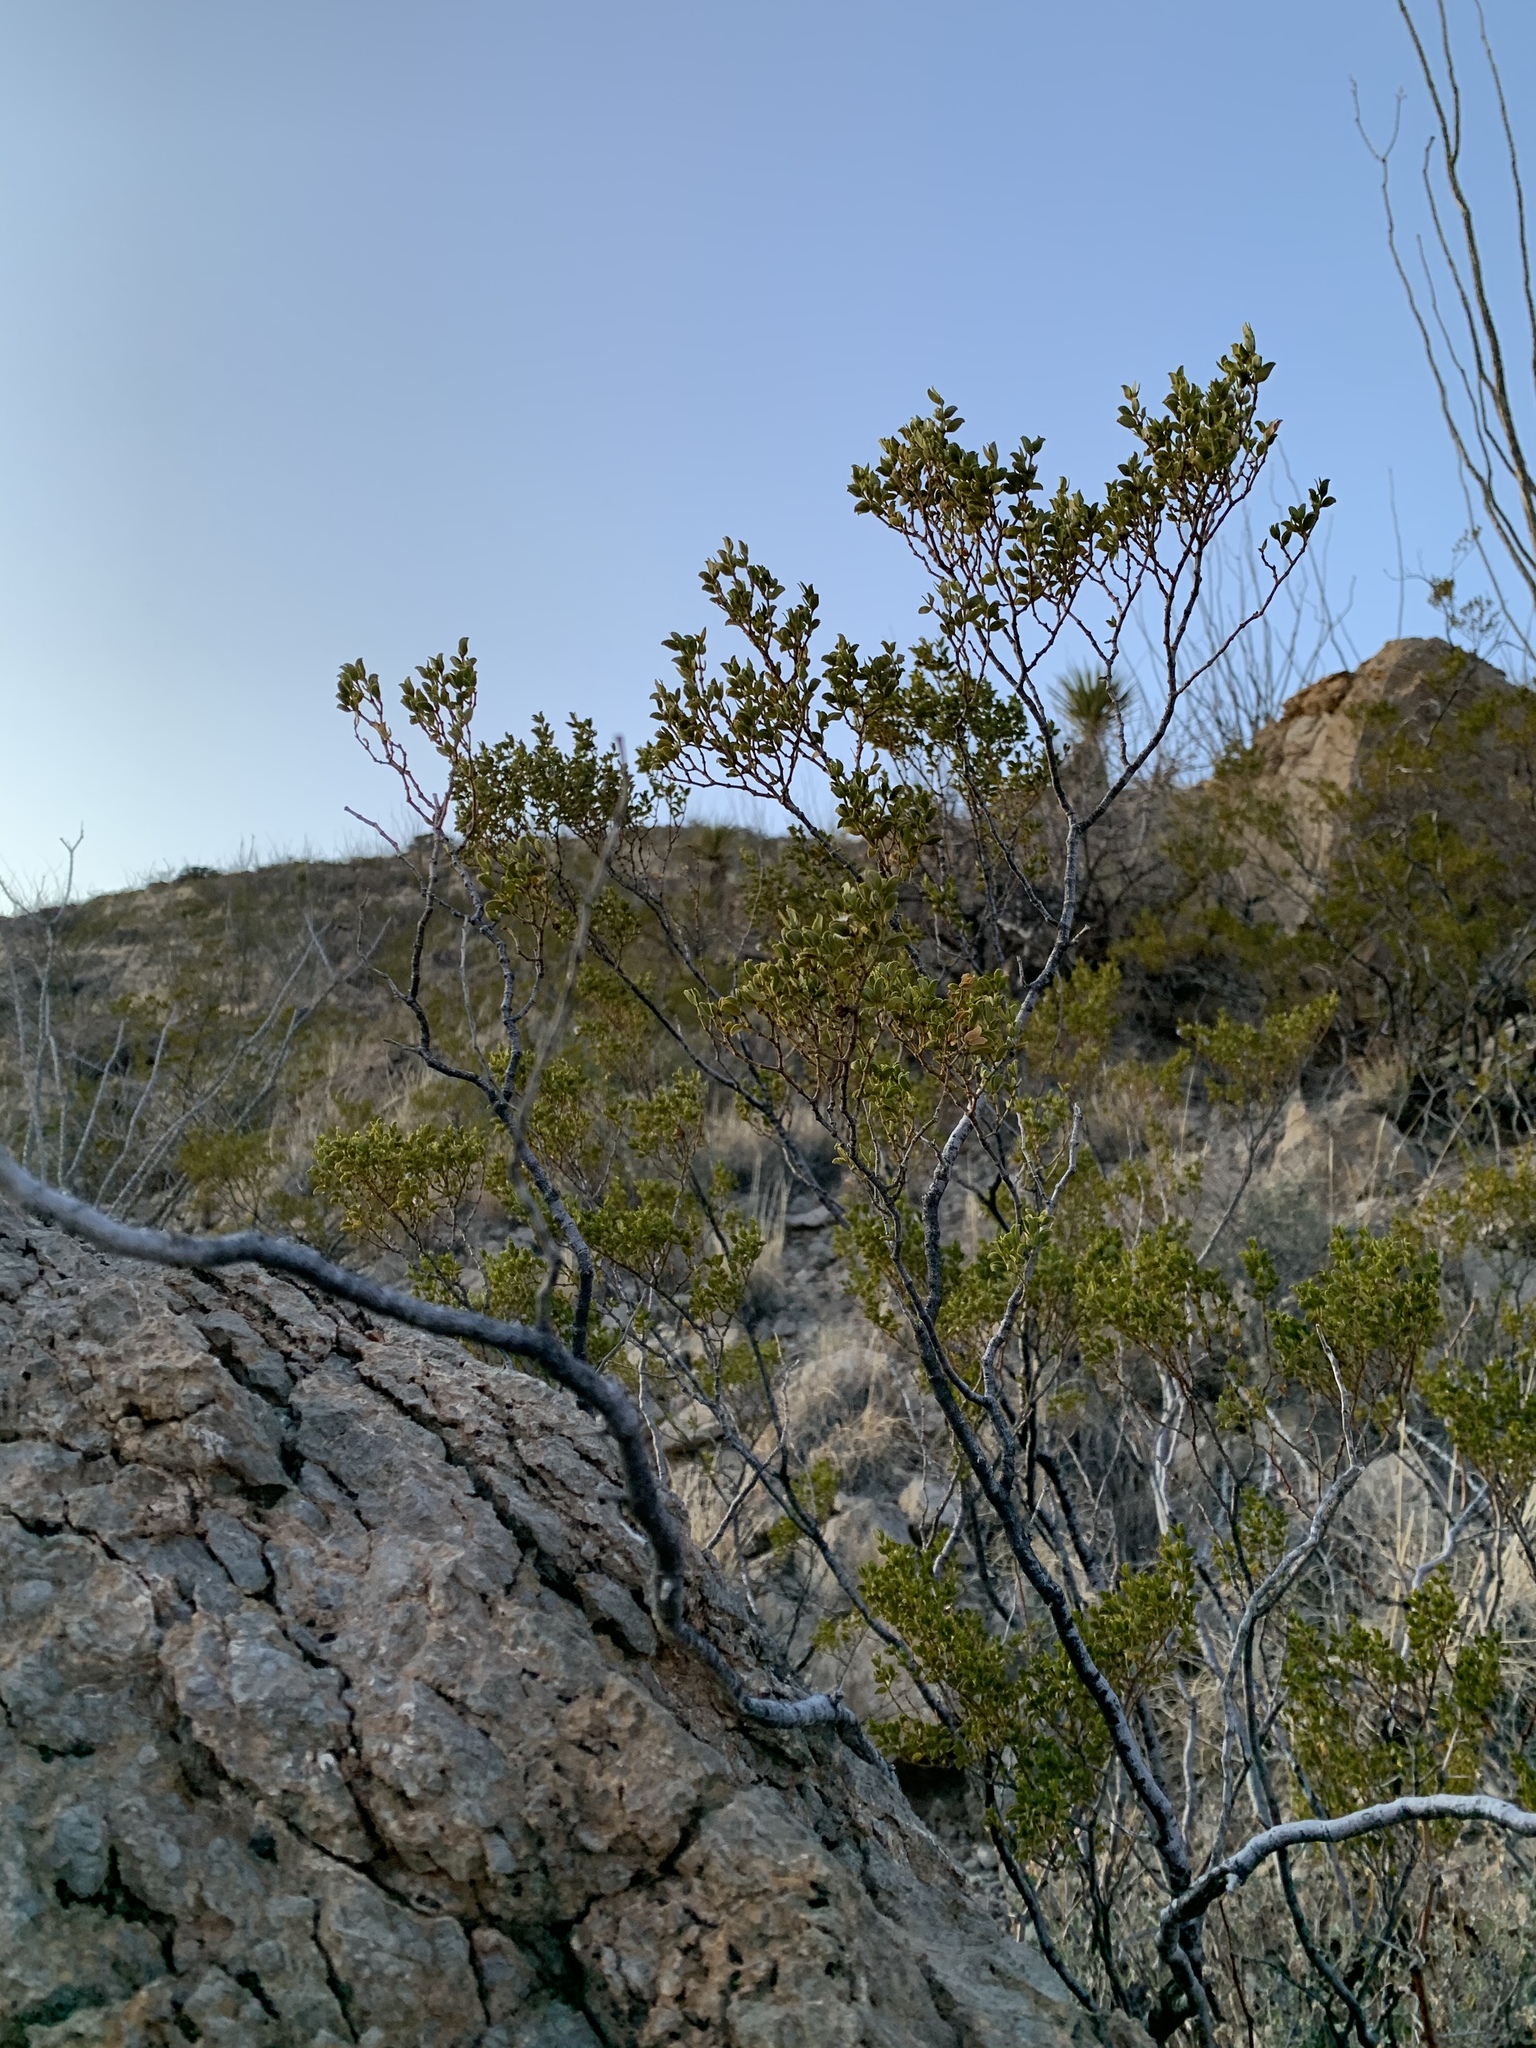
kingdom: Plantae
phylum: Tracheophyta
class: Magnoliopsida
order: Zygophyllales
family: Zygophyllaceae
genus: Larrea
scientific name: Larrea tridentata
